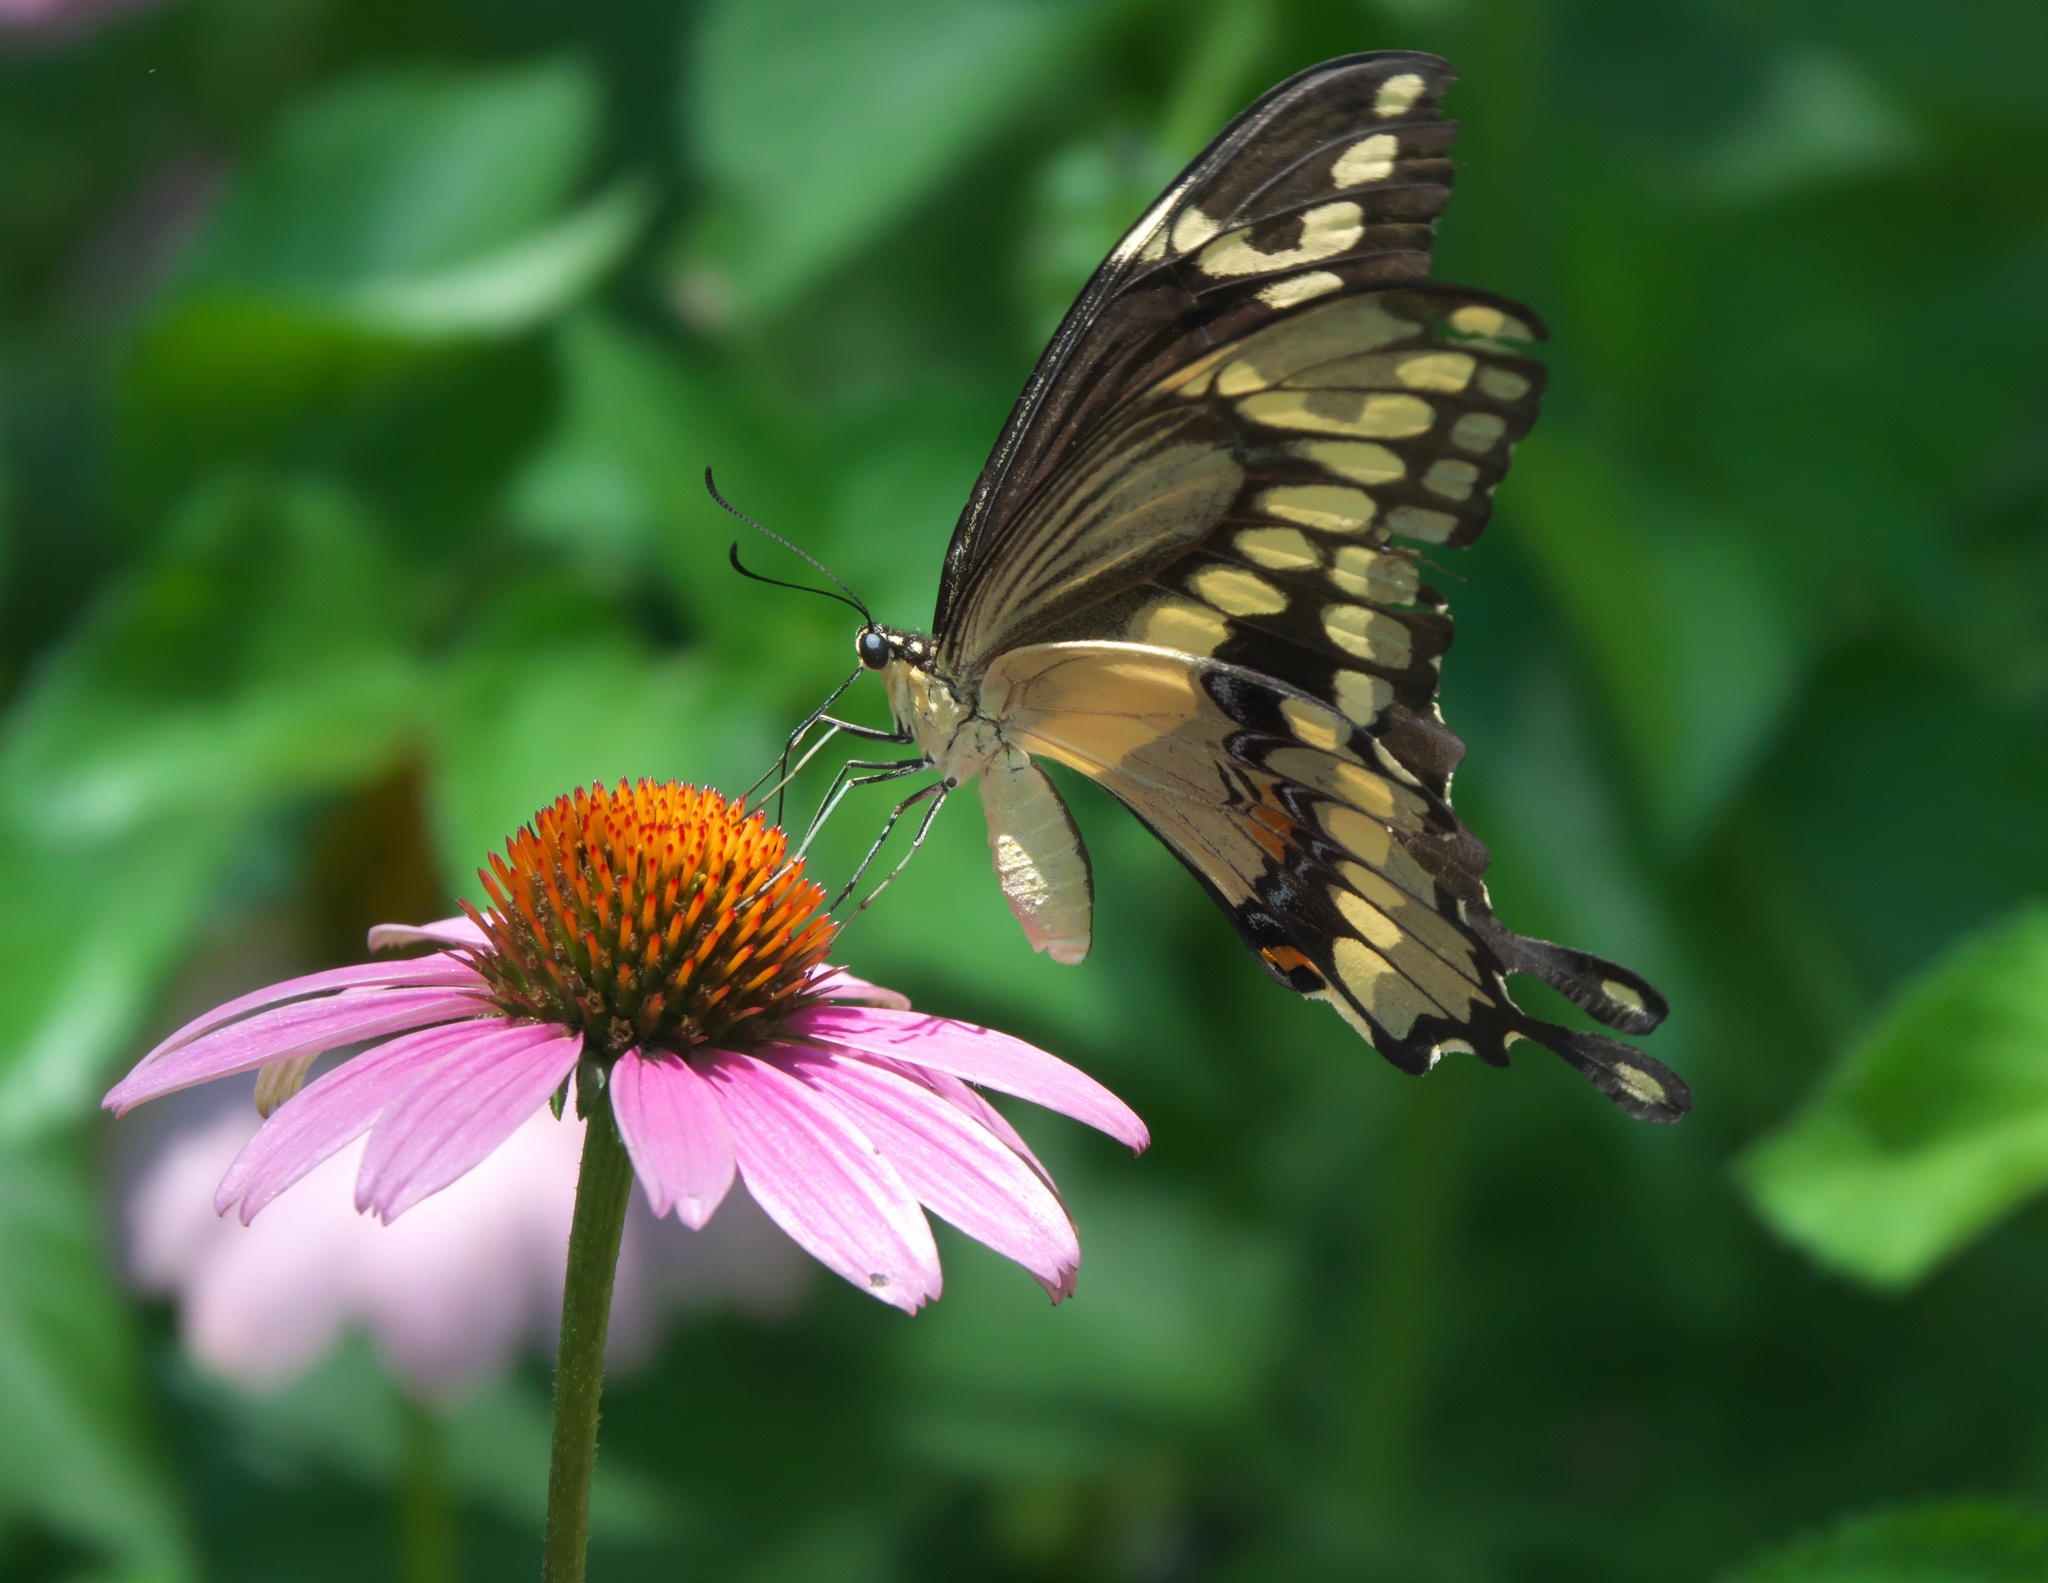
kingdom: Animalia
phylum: Arthropoda
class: Insecta
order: Lepidoptera
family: Papilionidae
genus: Papilio
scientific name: Papilio cresphontes
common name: Giant swallowtail
